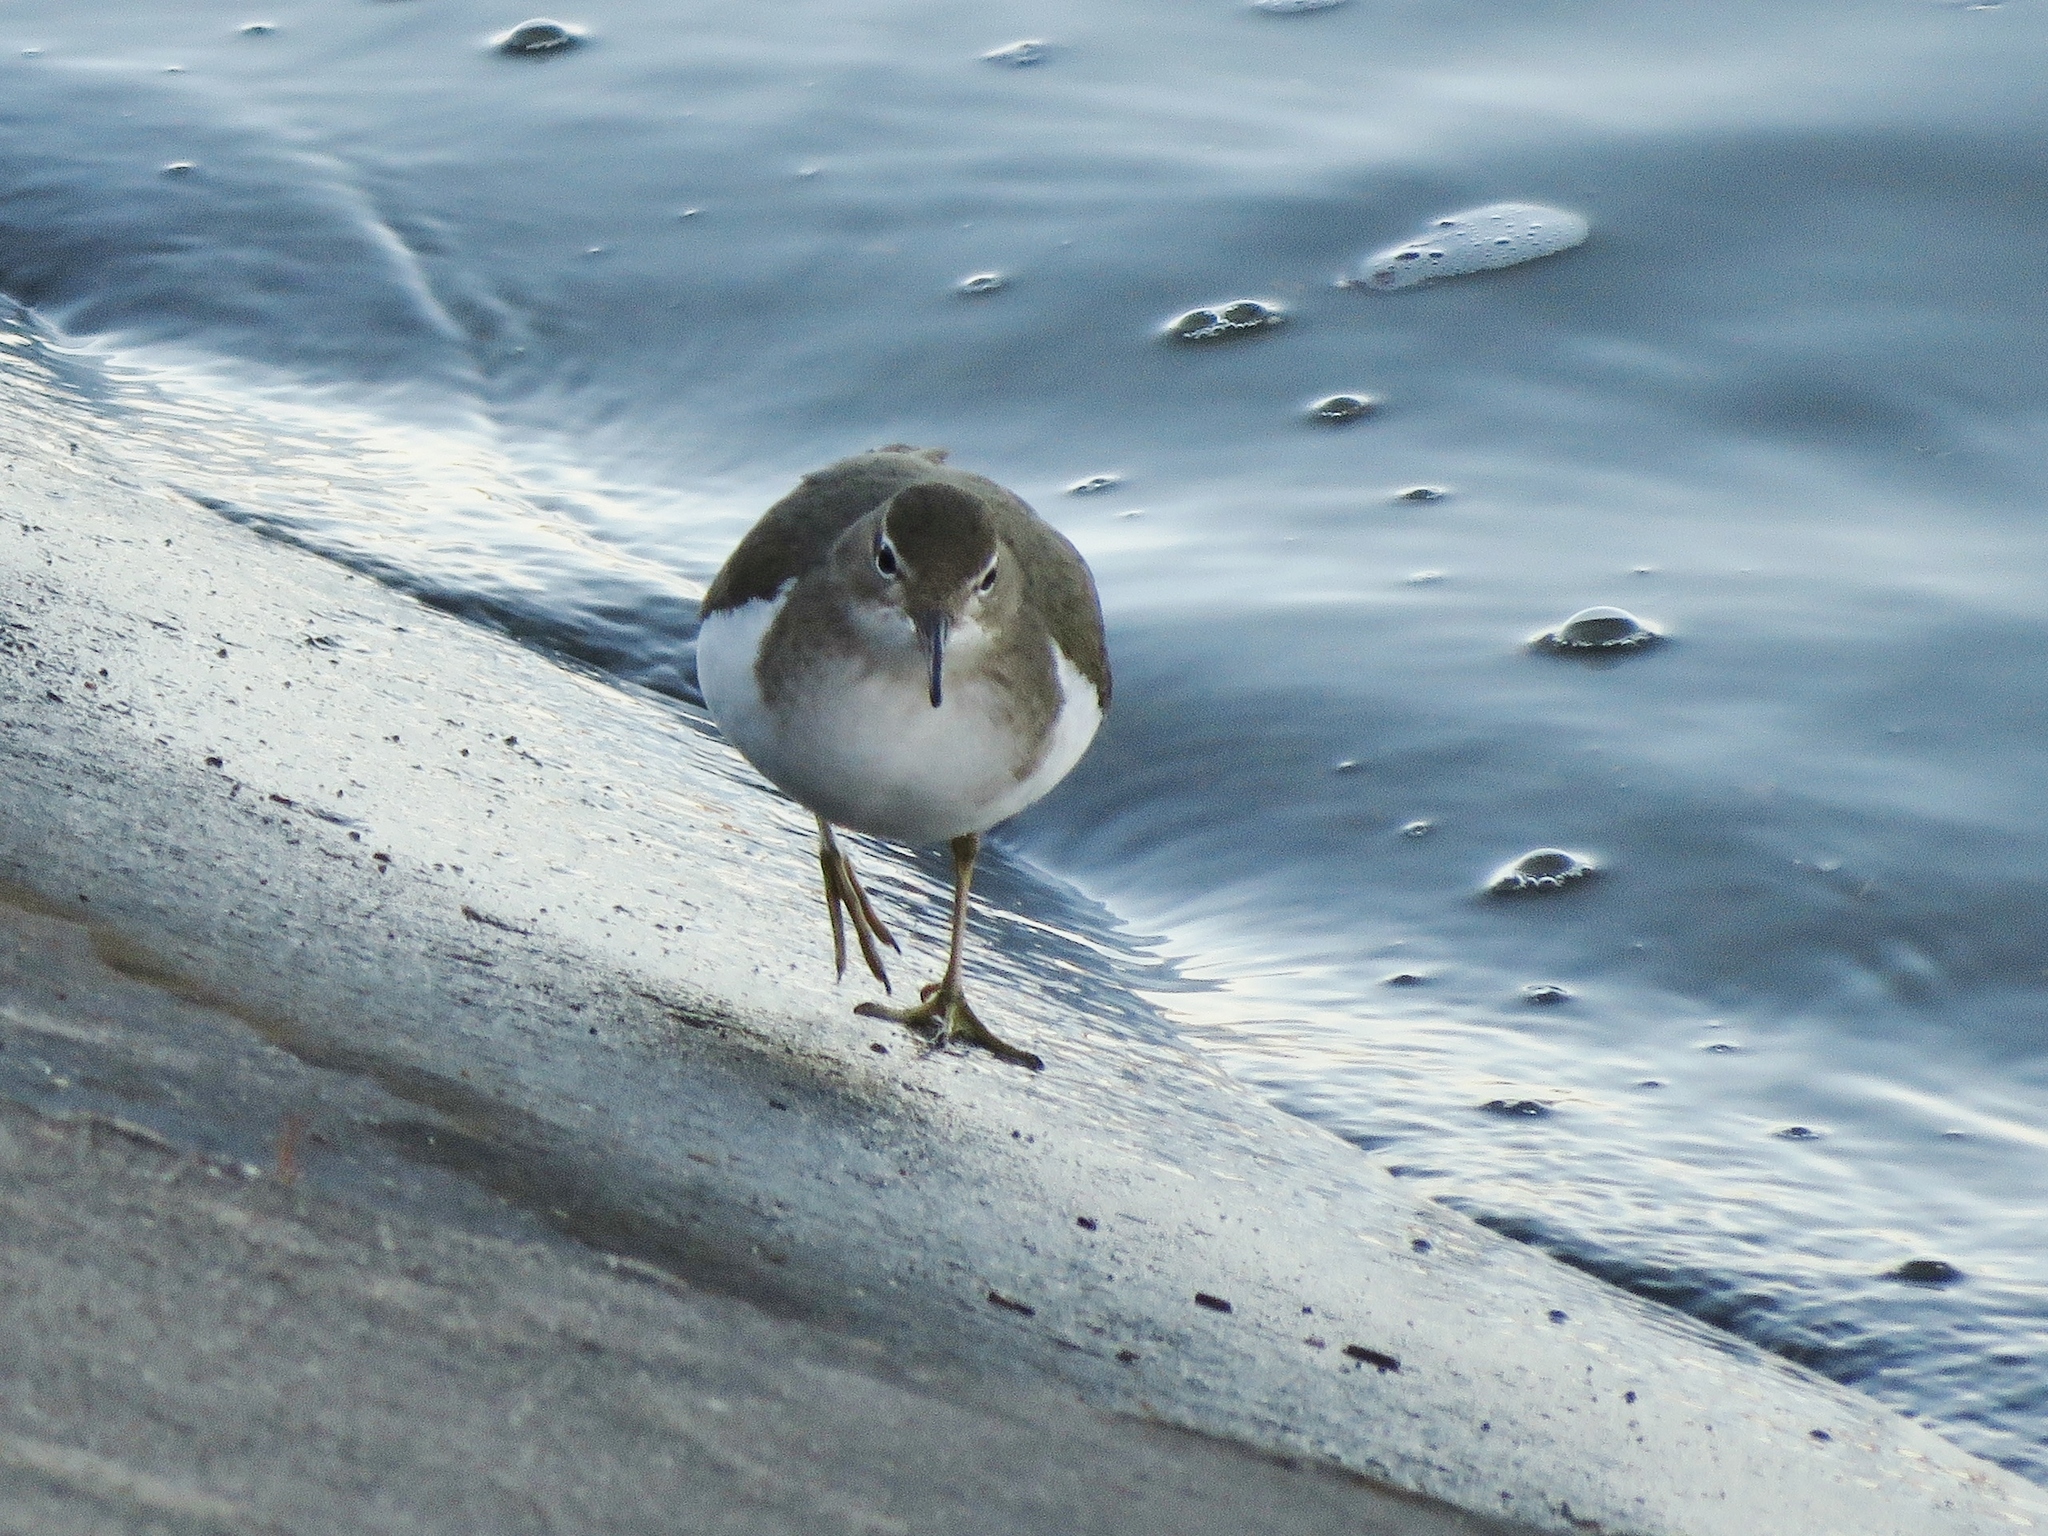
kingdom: Animalia
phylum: Chordata
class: Aves
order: Charadriiformes
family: Scolopacidae
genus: Actitis
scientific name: Actitis macularius
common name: Spotted sandpiper
